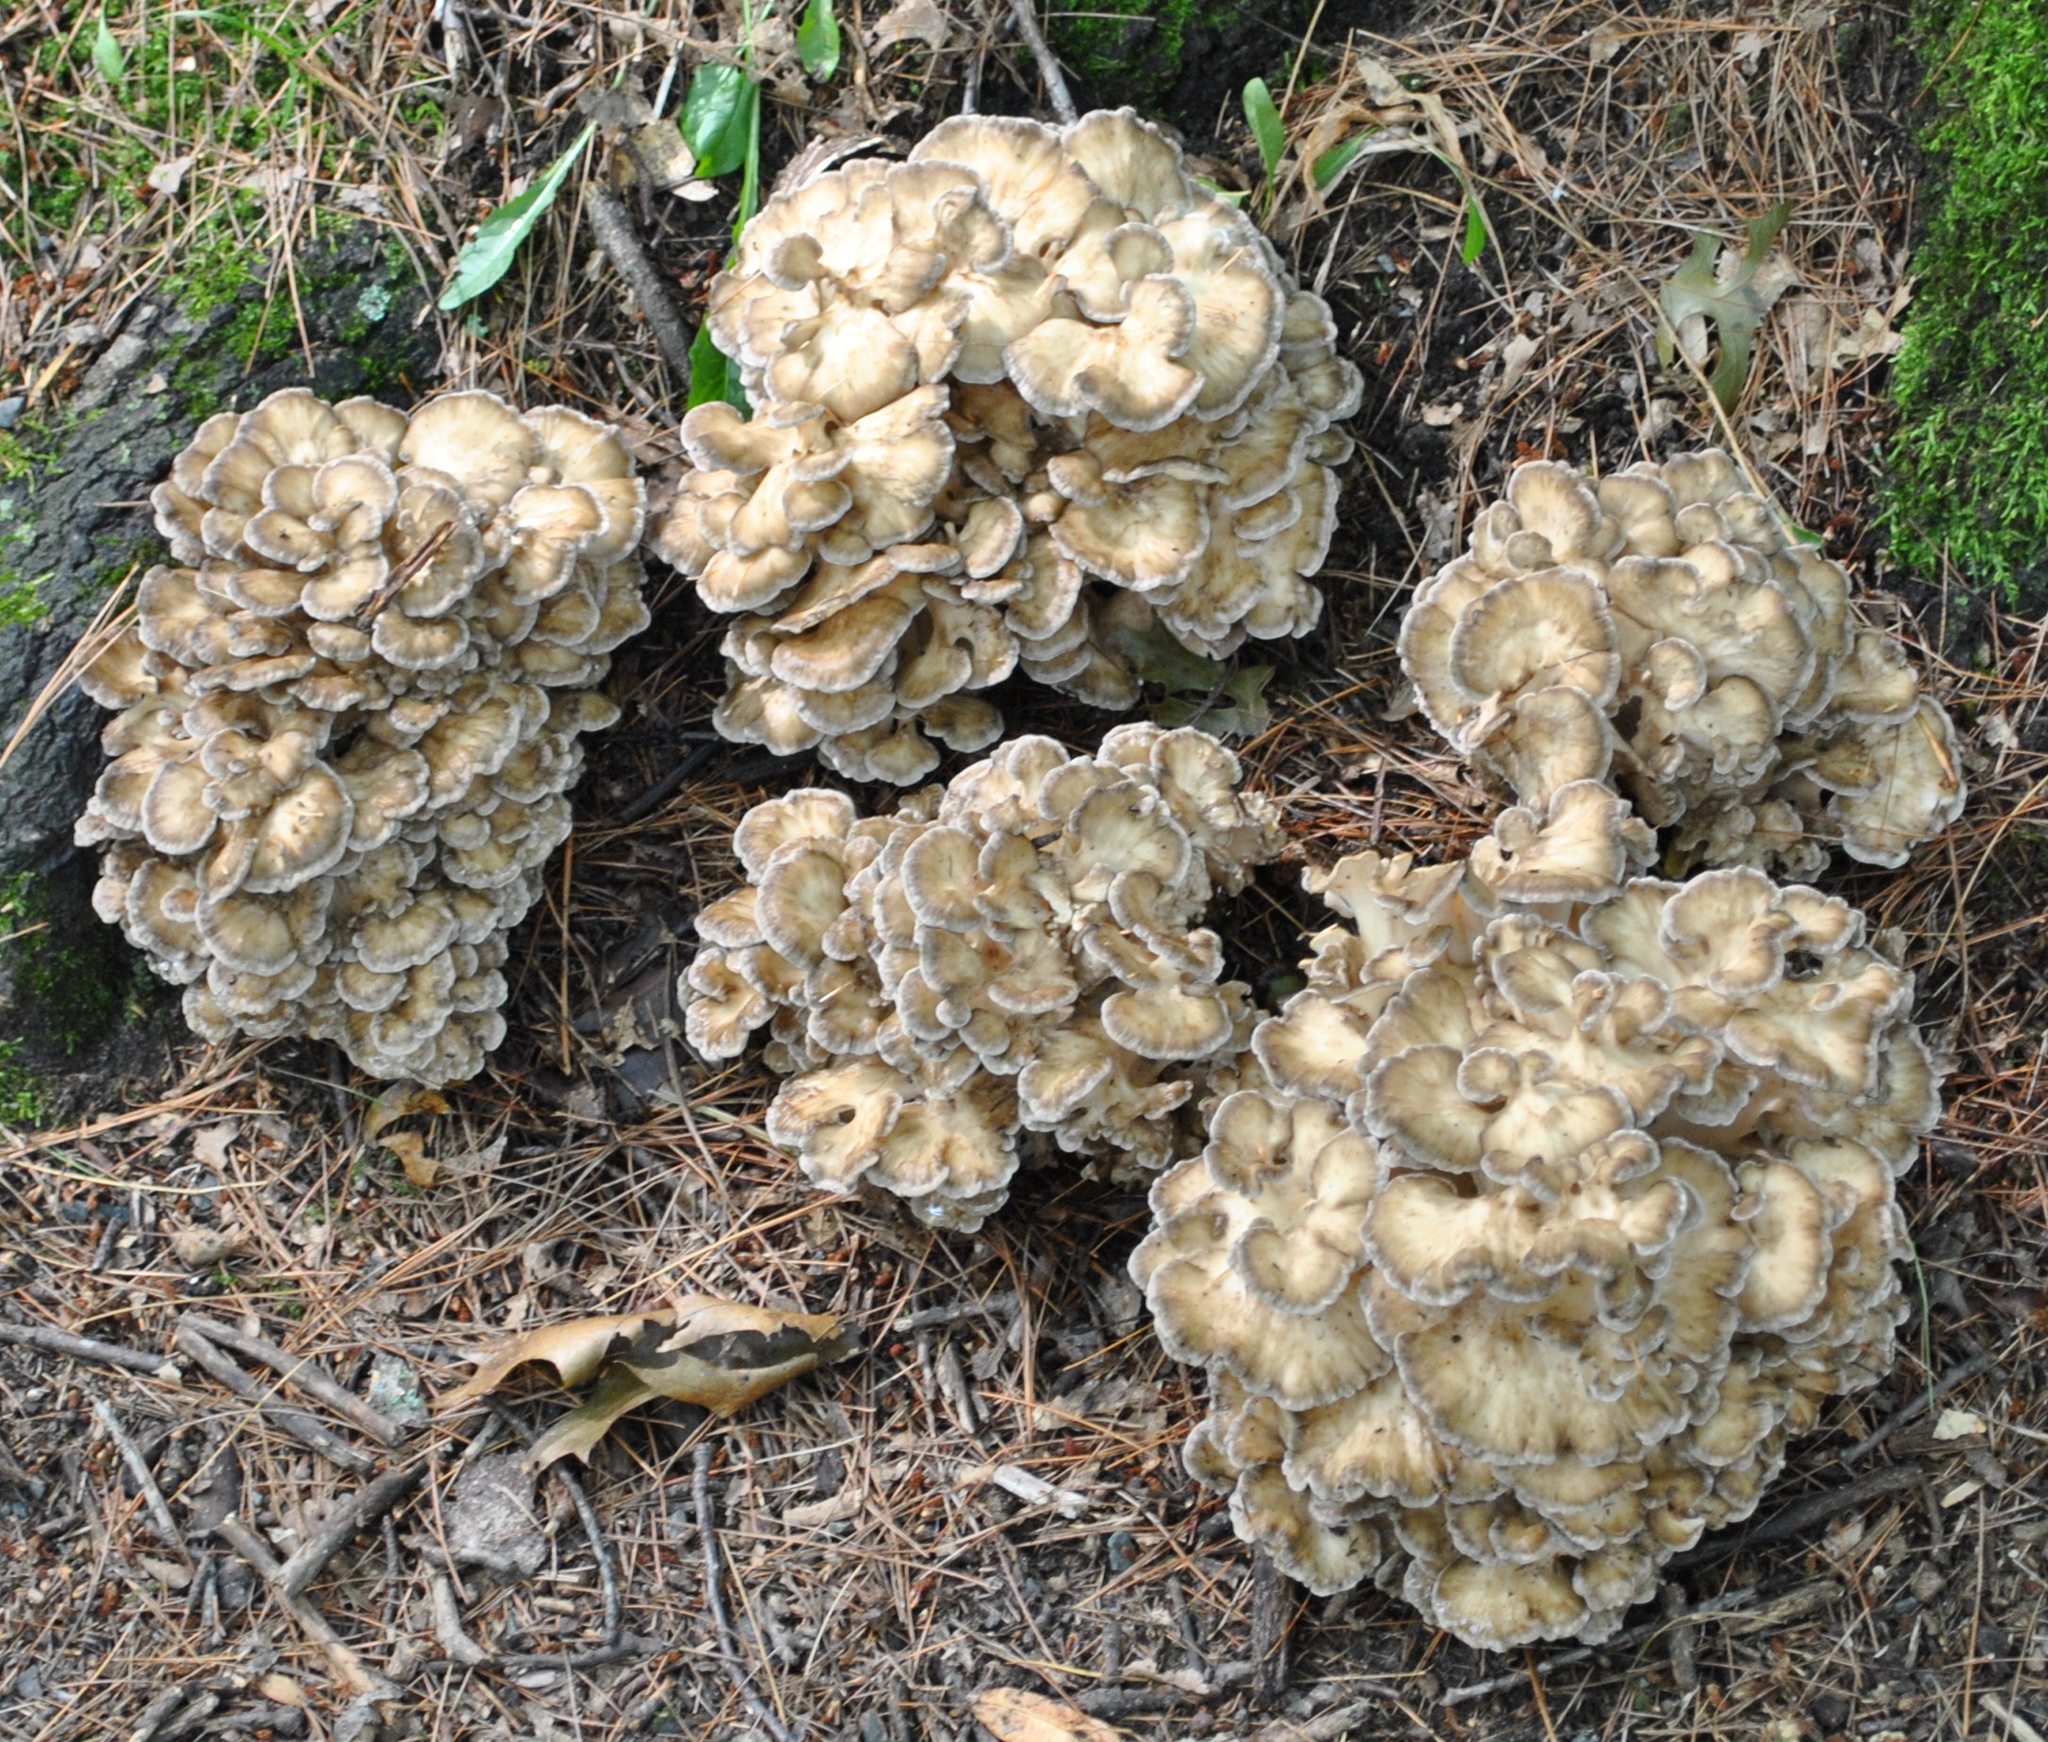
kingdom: Fungi
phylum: Basidiomycota
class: Agaricomycetes
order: Polyporales
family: Grifolaceae
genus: Grifola
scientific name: Grifola frondosa
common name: Hen of the woods
